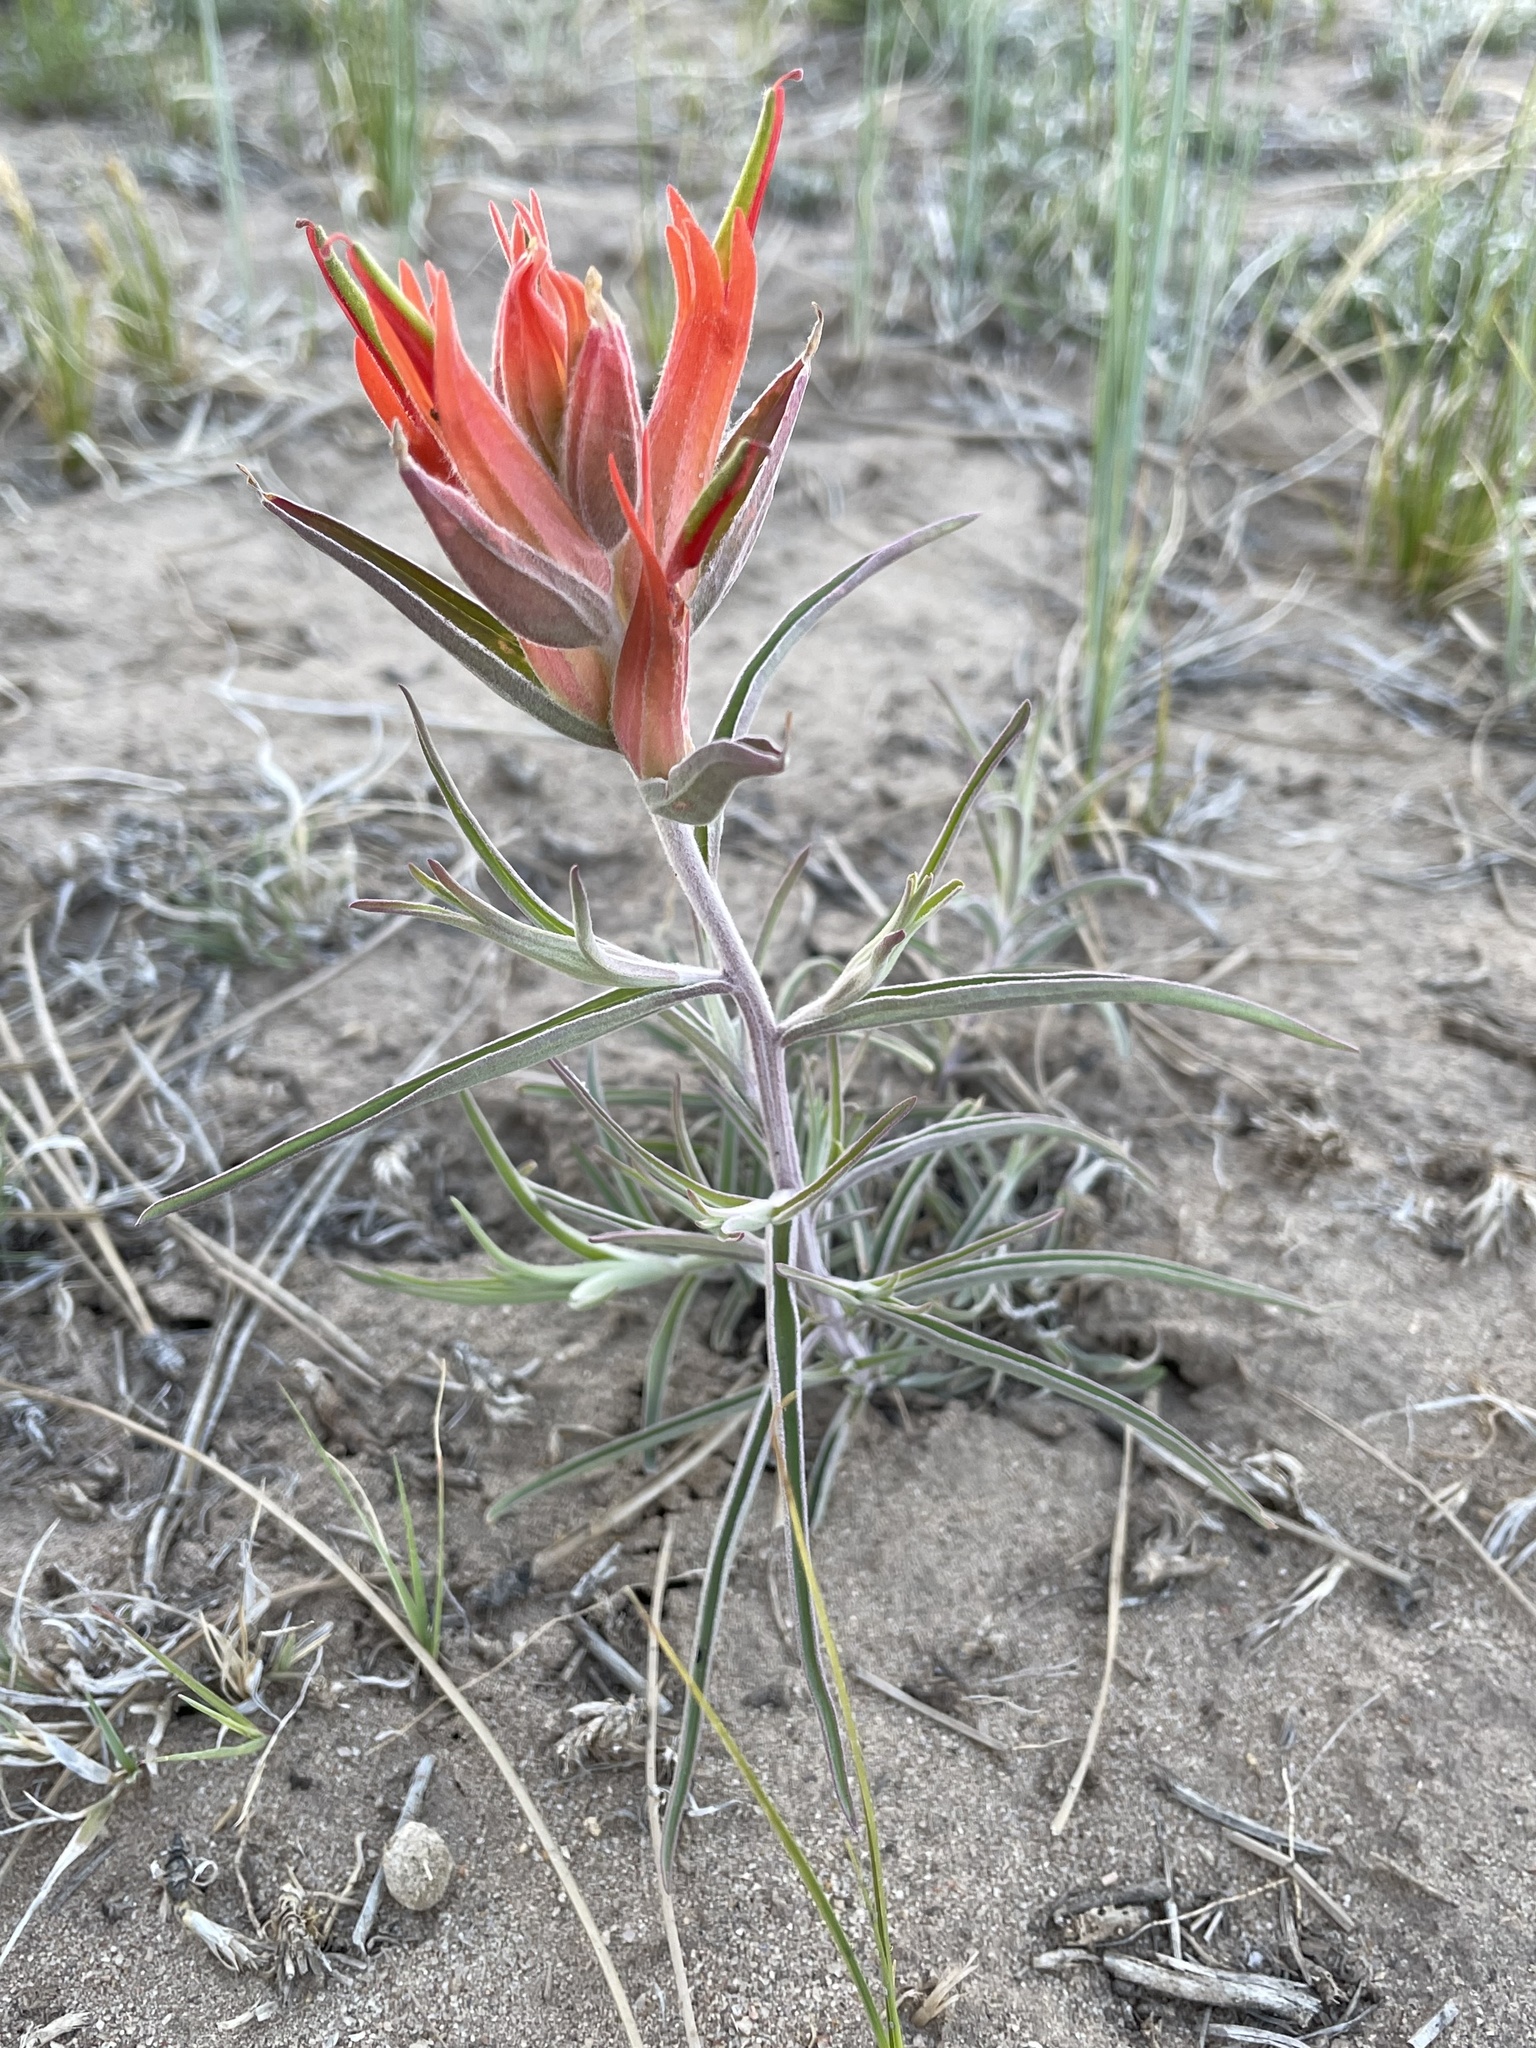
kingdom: Plantae
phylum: Tracheophyta
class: Magnoliopsida
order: Lamiales
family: Orobanchaceae
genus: Castilleja
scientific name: Castilleja integra
